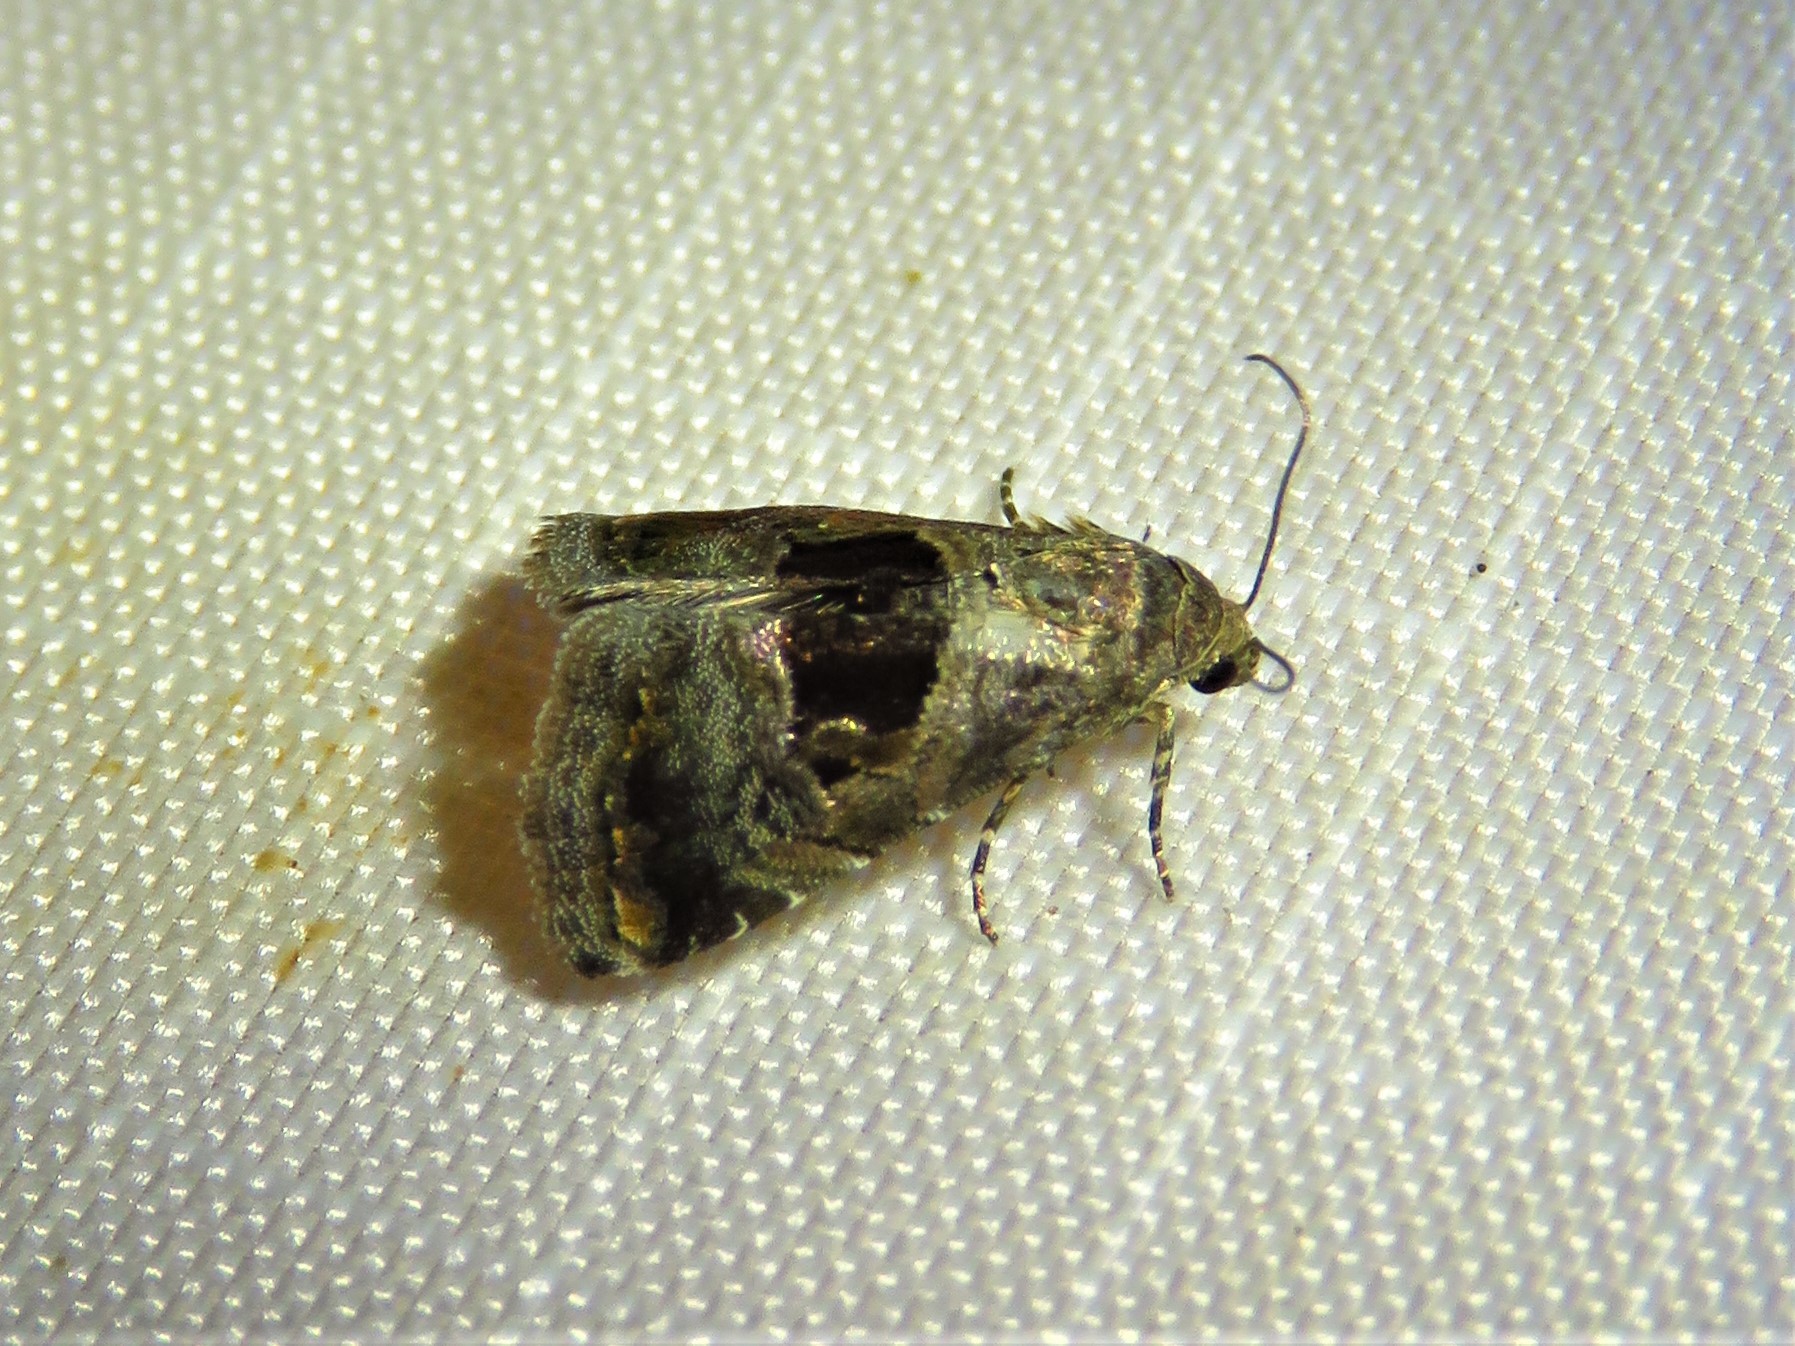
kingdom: Animalia
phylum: Arthropoda
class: Insecta
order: Lepidoptera
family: Noctuidae
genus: Tripudia
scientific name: Tripudia quadrifera
